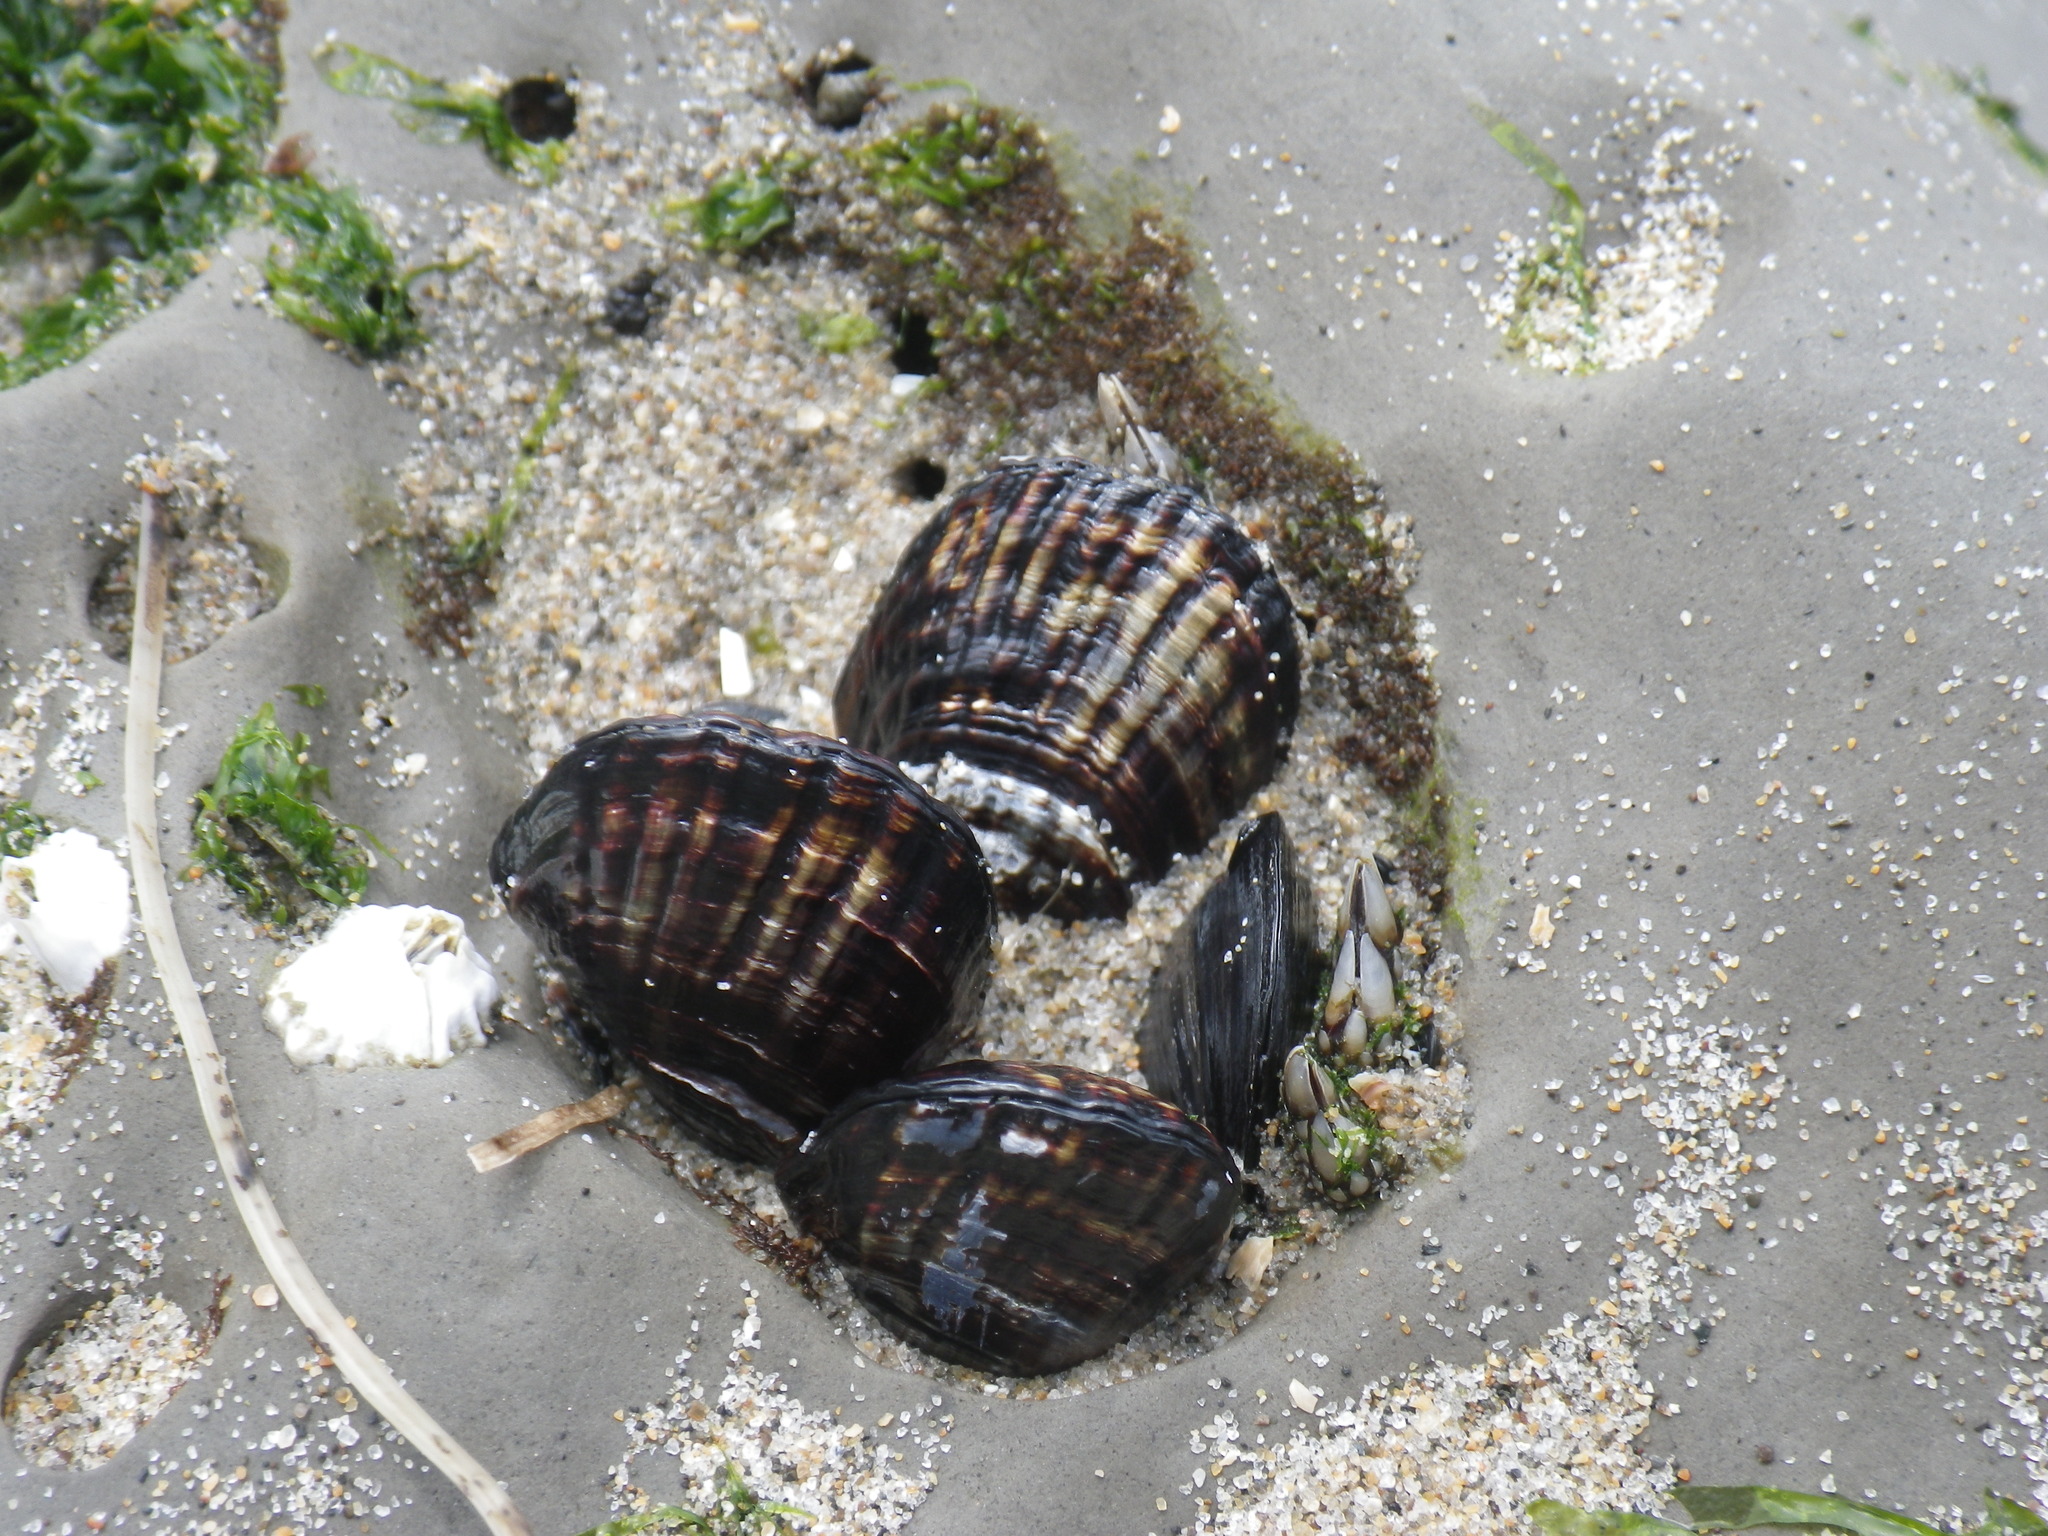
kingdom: Animalia
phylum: Mollusca
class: Bivalvia
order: Mytilida
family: Mytilidae
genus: Mytilus
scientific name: Mytilus californianus
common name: California mussel
